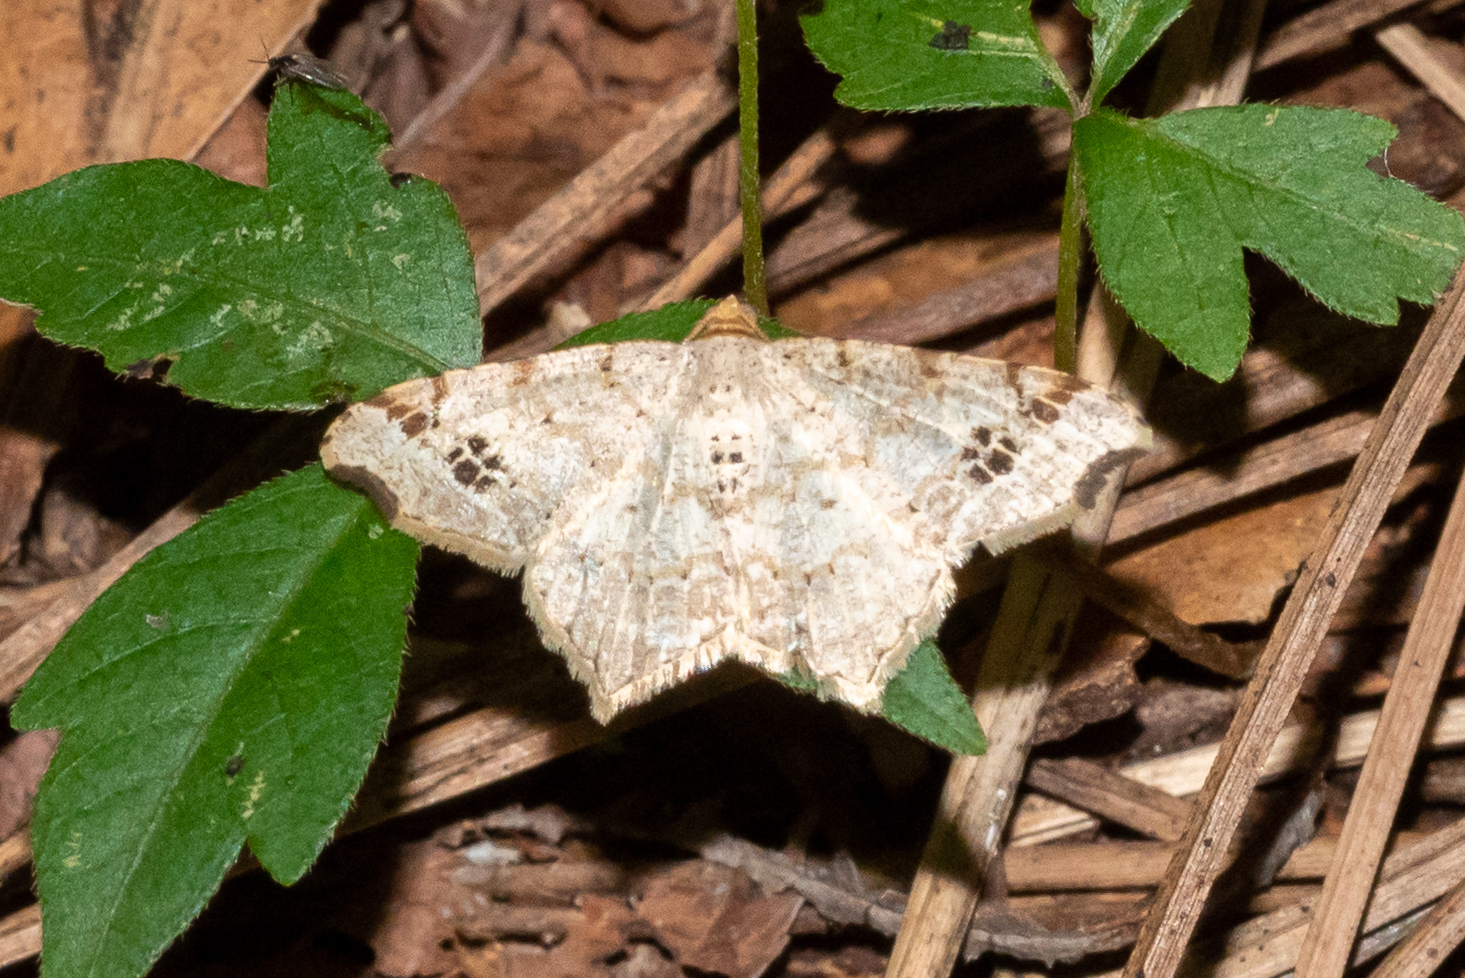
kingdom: Animalia
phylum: Arthropoda
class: Insecta
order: Lepidoptera
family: Geometridae
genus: Macaria
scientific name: Macaria aemulataria
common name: Common angle
